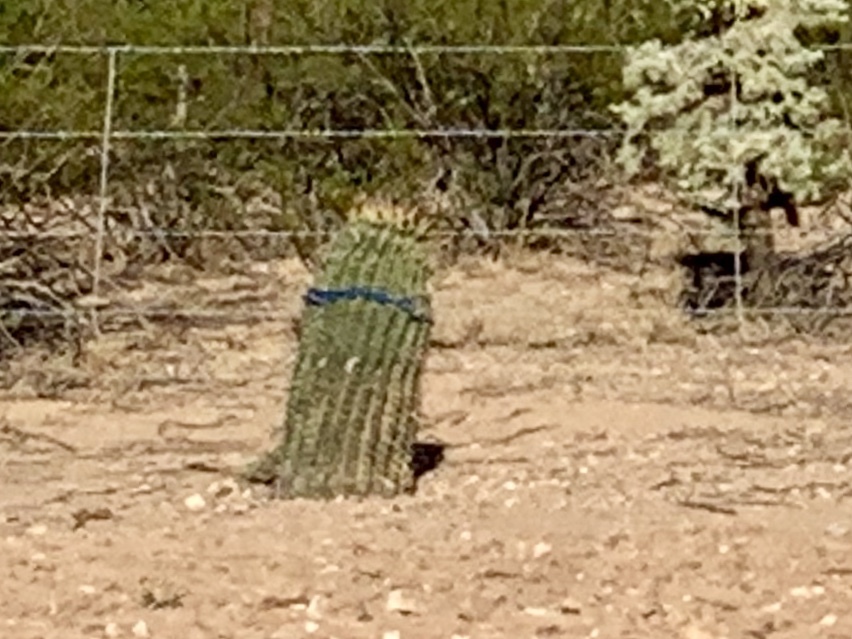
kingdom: Plantae
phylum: Tracheophyta
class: Magnoliopsida
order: Caryophyllales
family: Cactaceae
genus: Ferocactus
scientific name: Ferocactus wislizeni
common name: Candy barrel cactus
